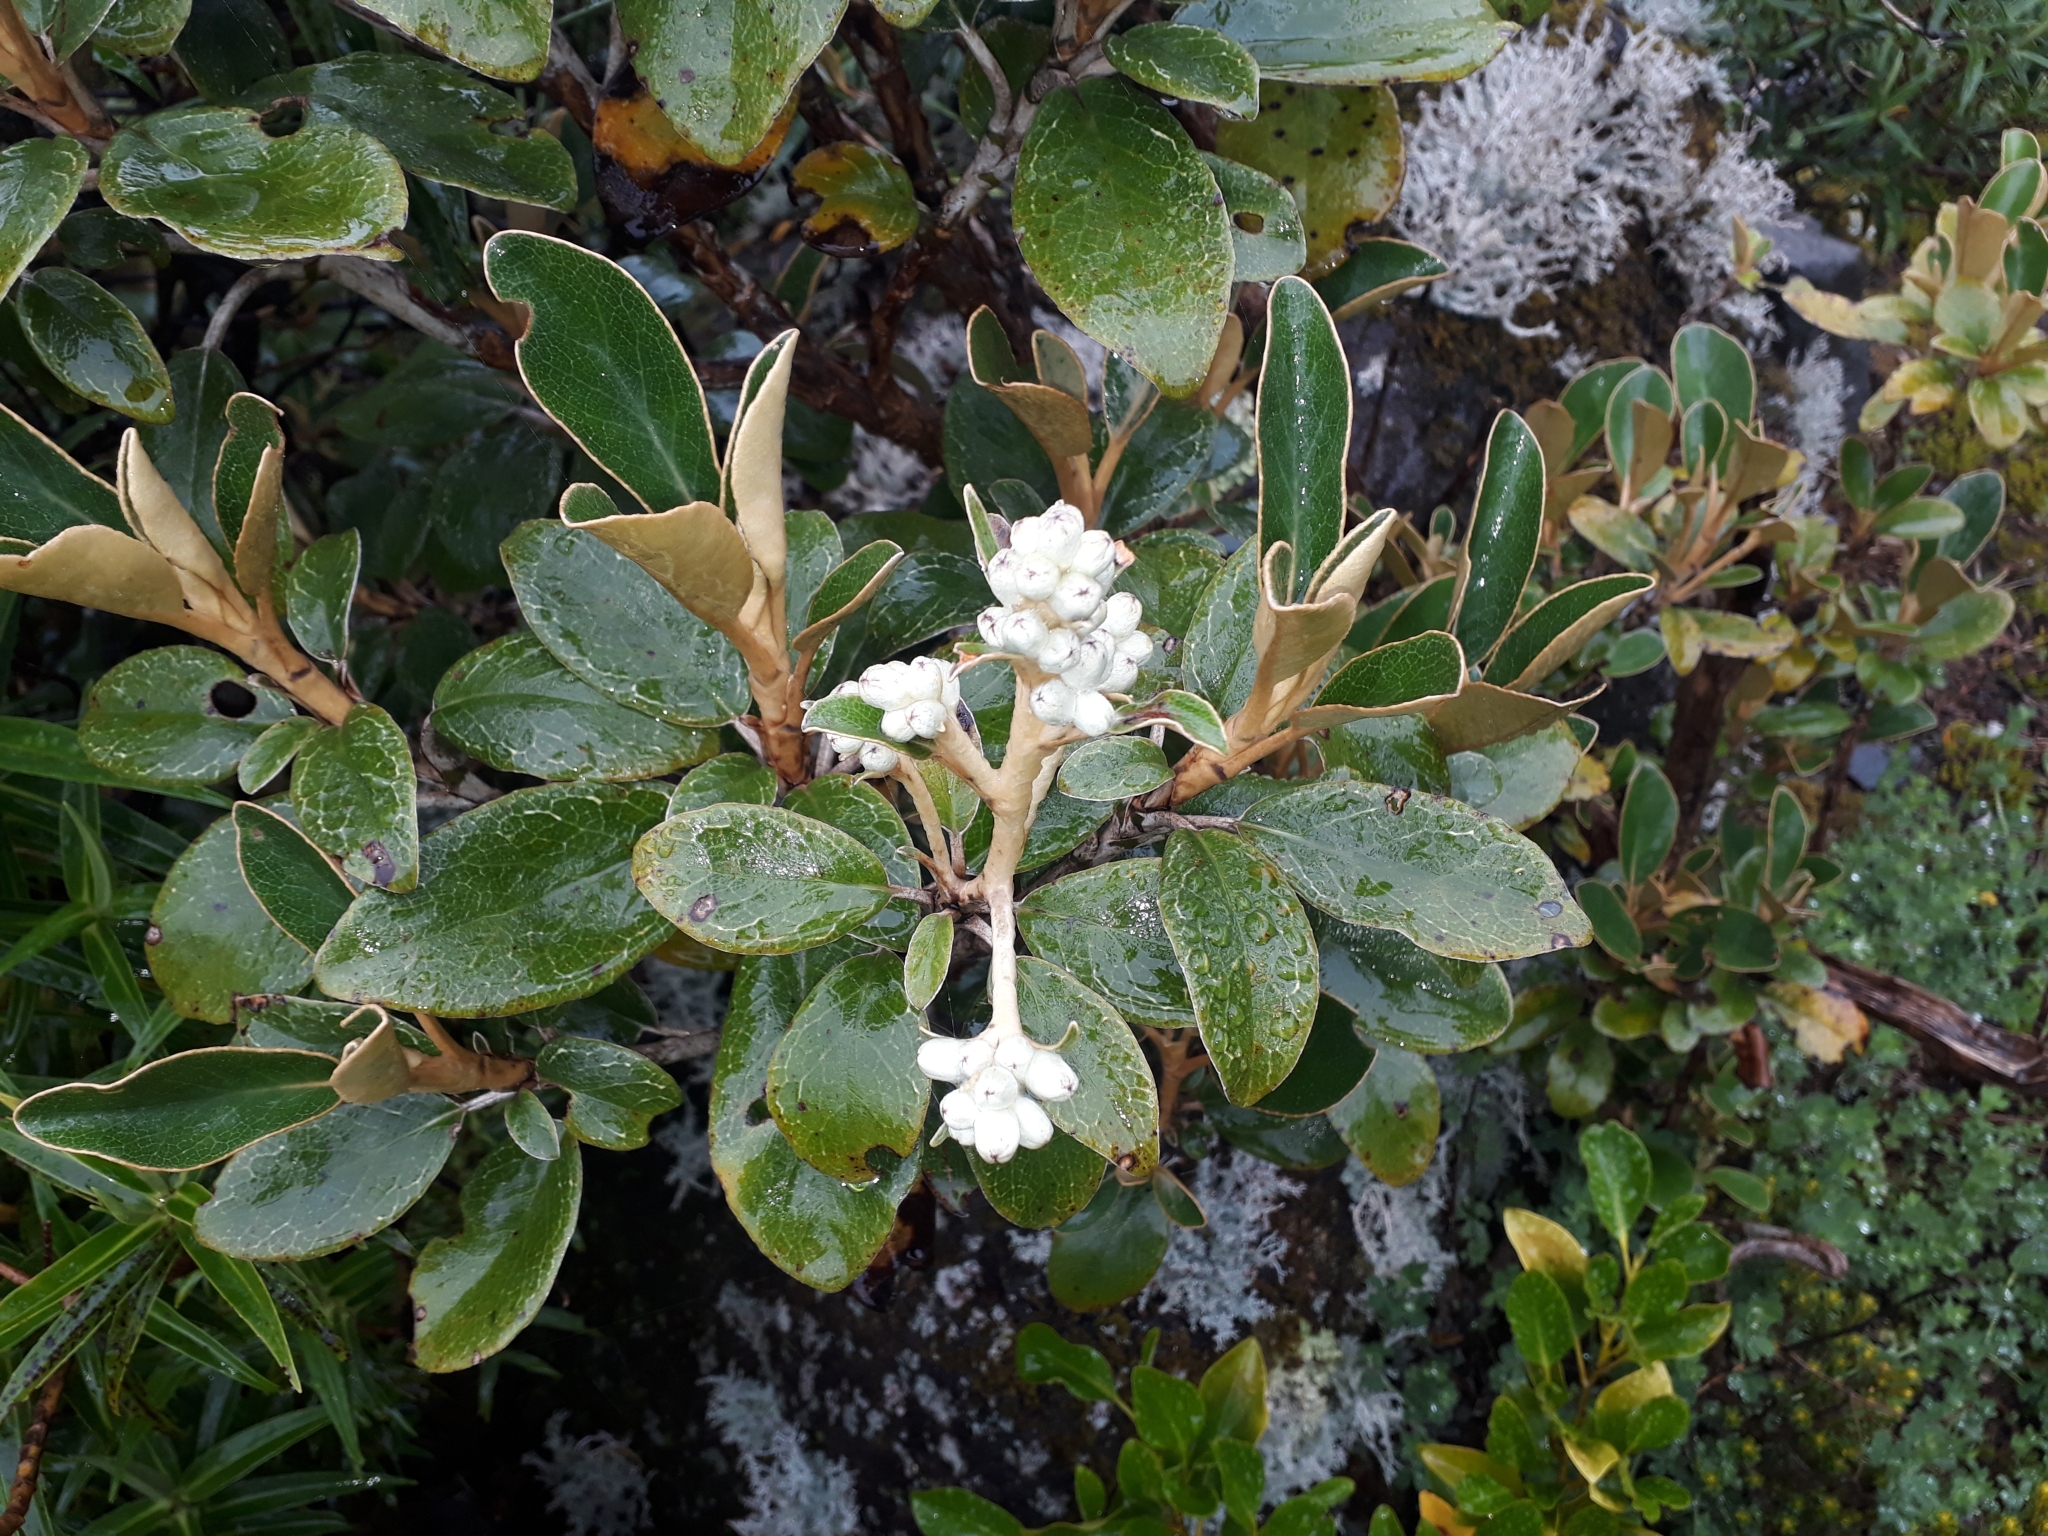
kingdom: Plantae
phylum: Tracheophyta
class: Magnoliopsida
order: Asterales
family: Asteraceae
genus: Brachyglottis
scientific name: Brachyglottis elaeagnifolia
